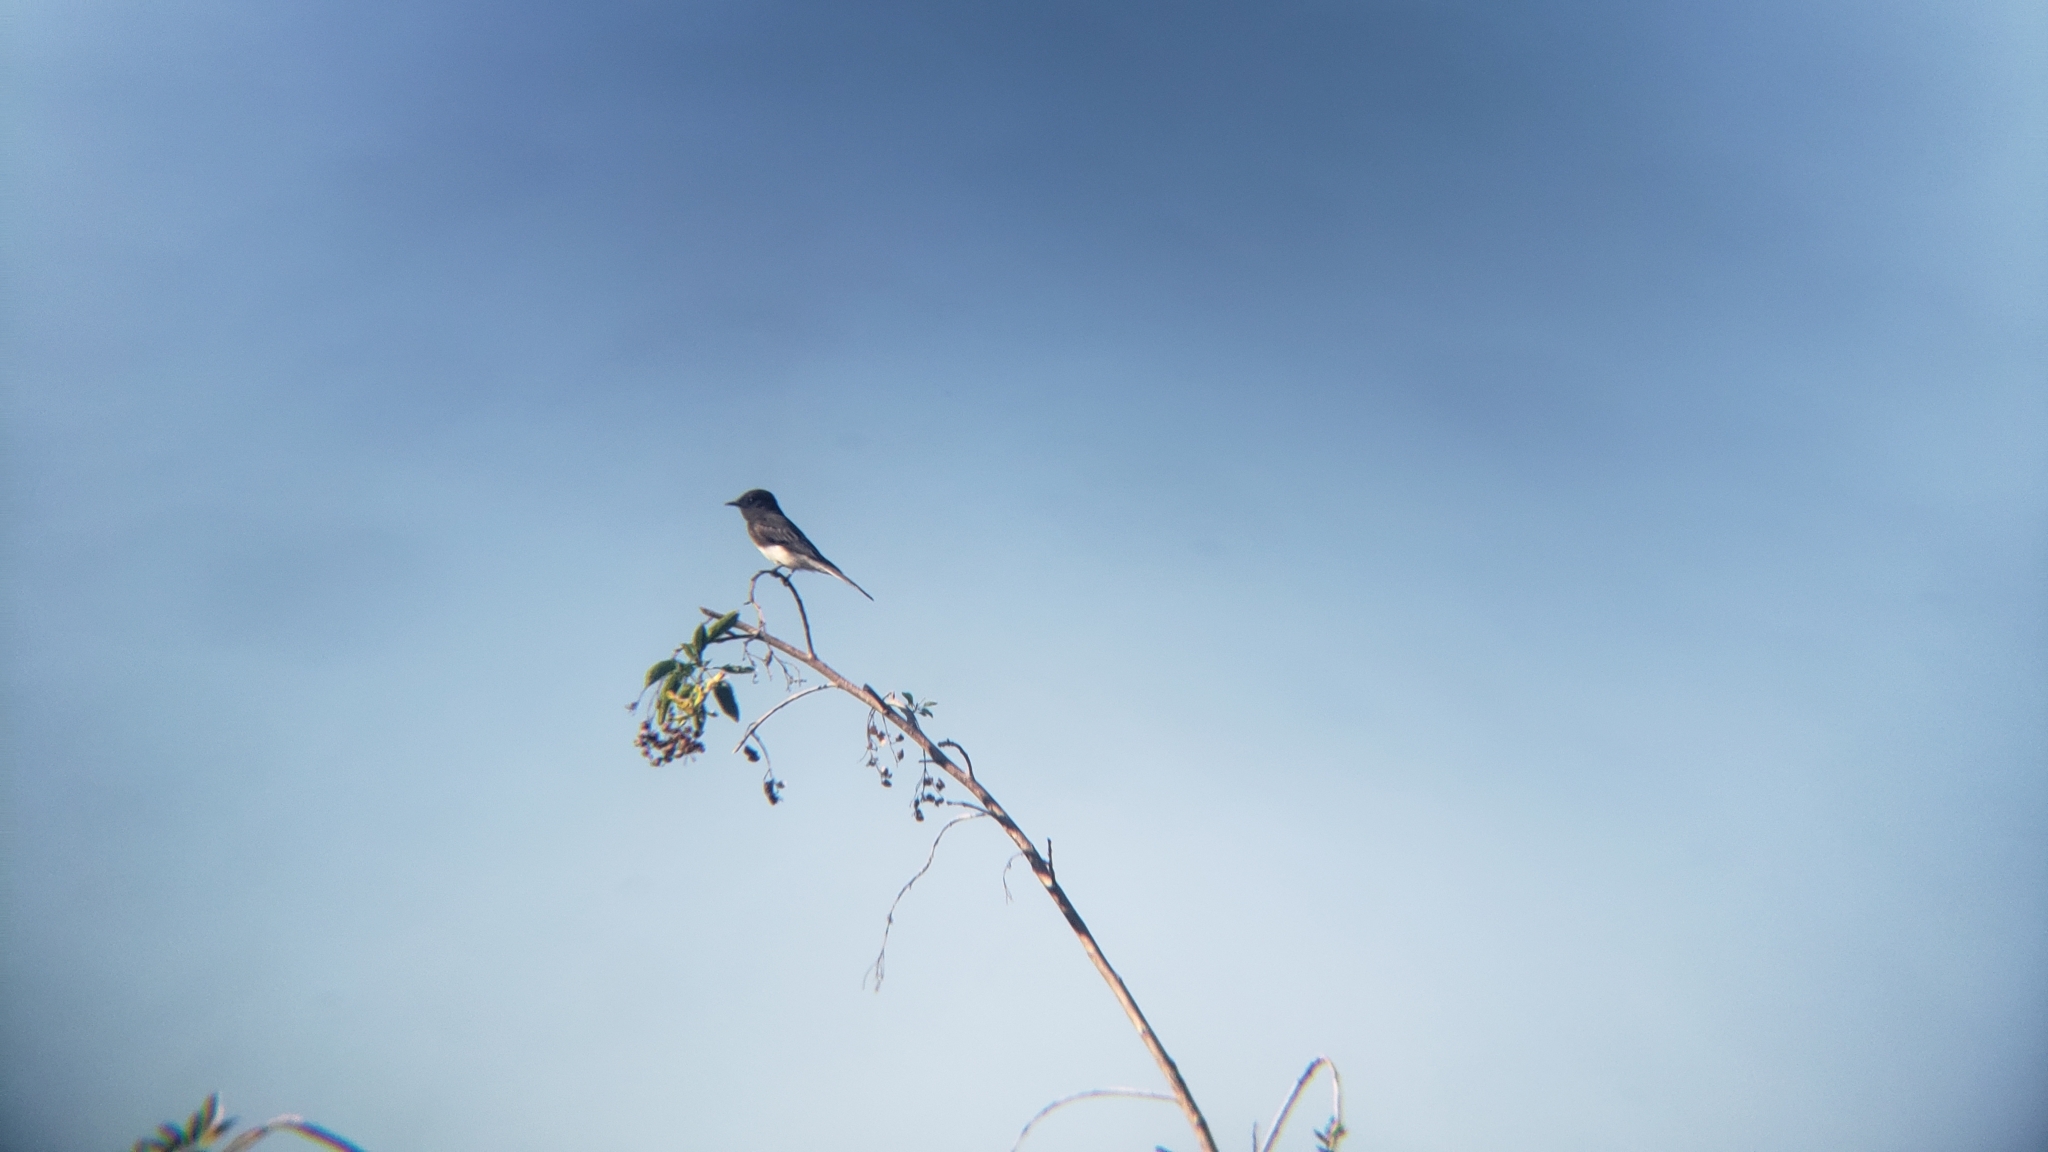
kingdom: Animalia
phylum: Chordata
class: Aves
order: Passeriformes
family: Tyrannidae
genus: Sayornis
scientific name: Sayornis nigricans
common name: Black phoebe
